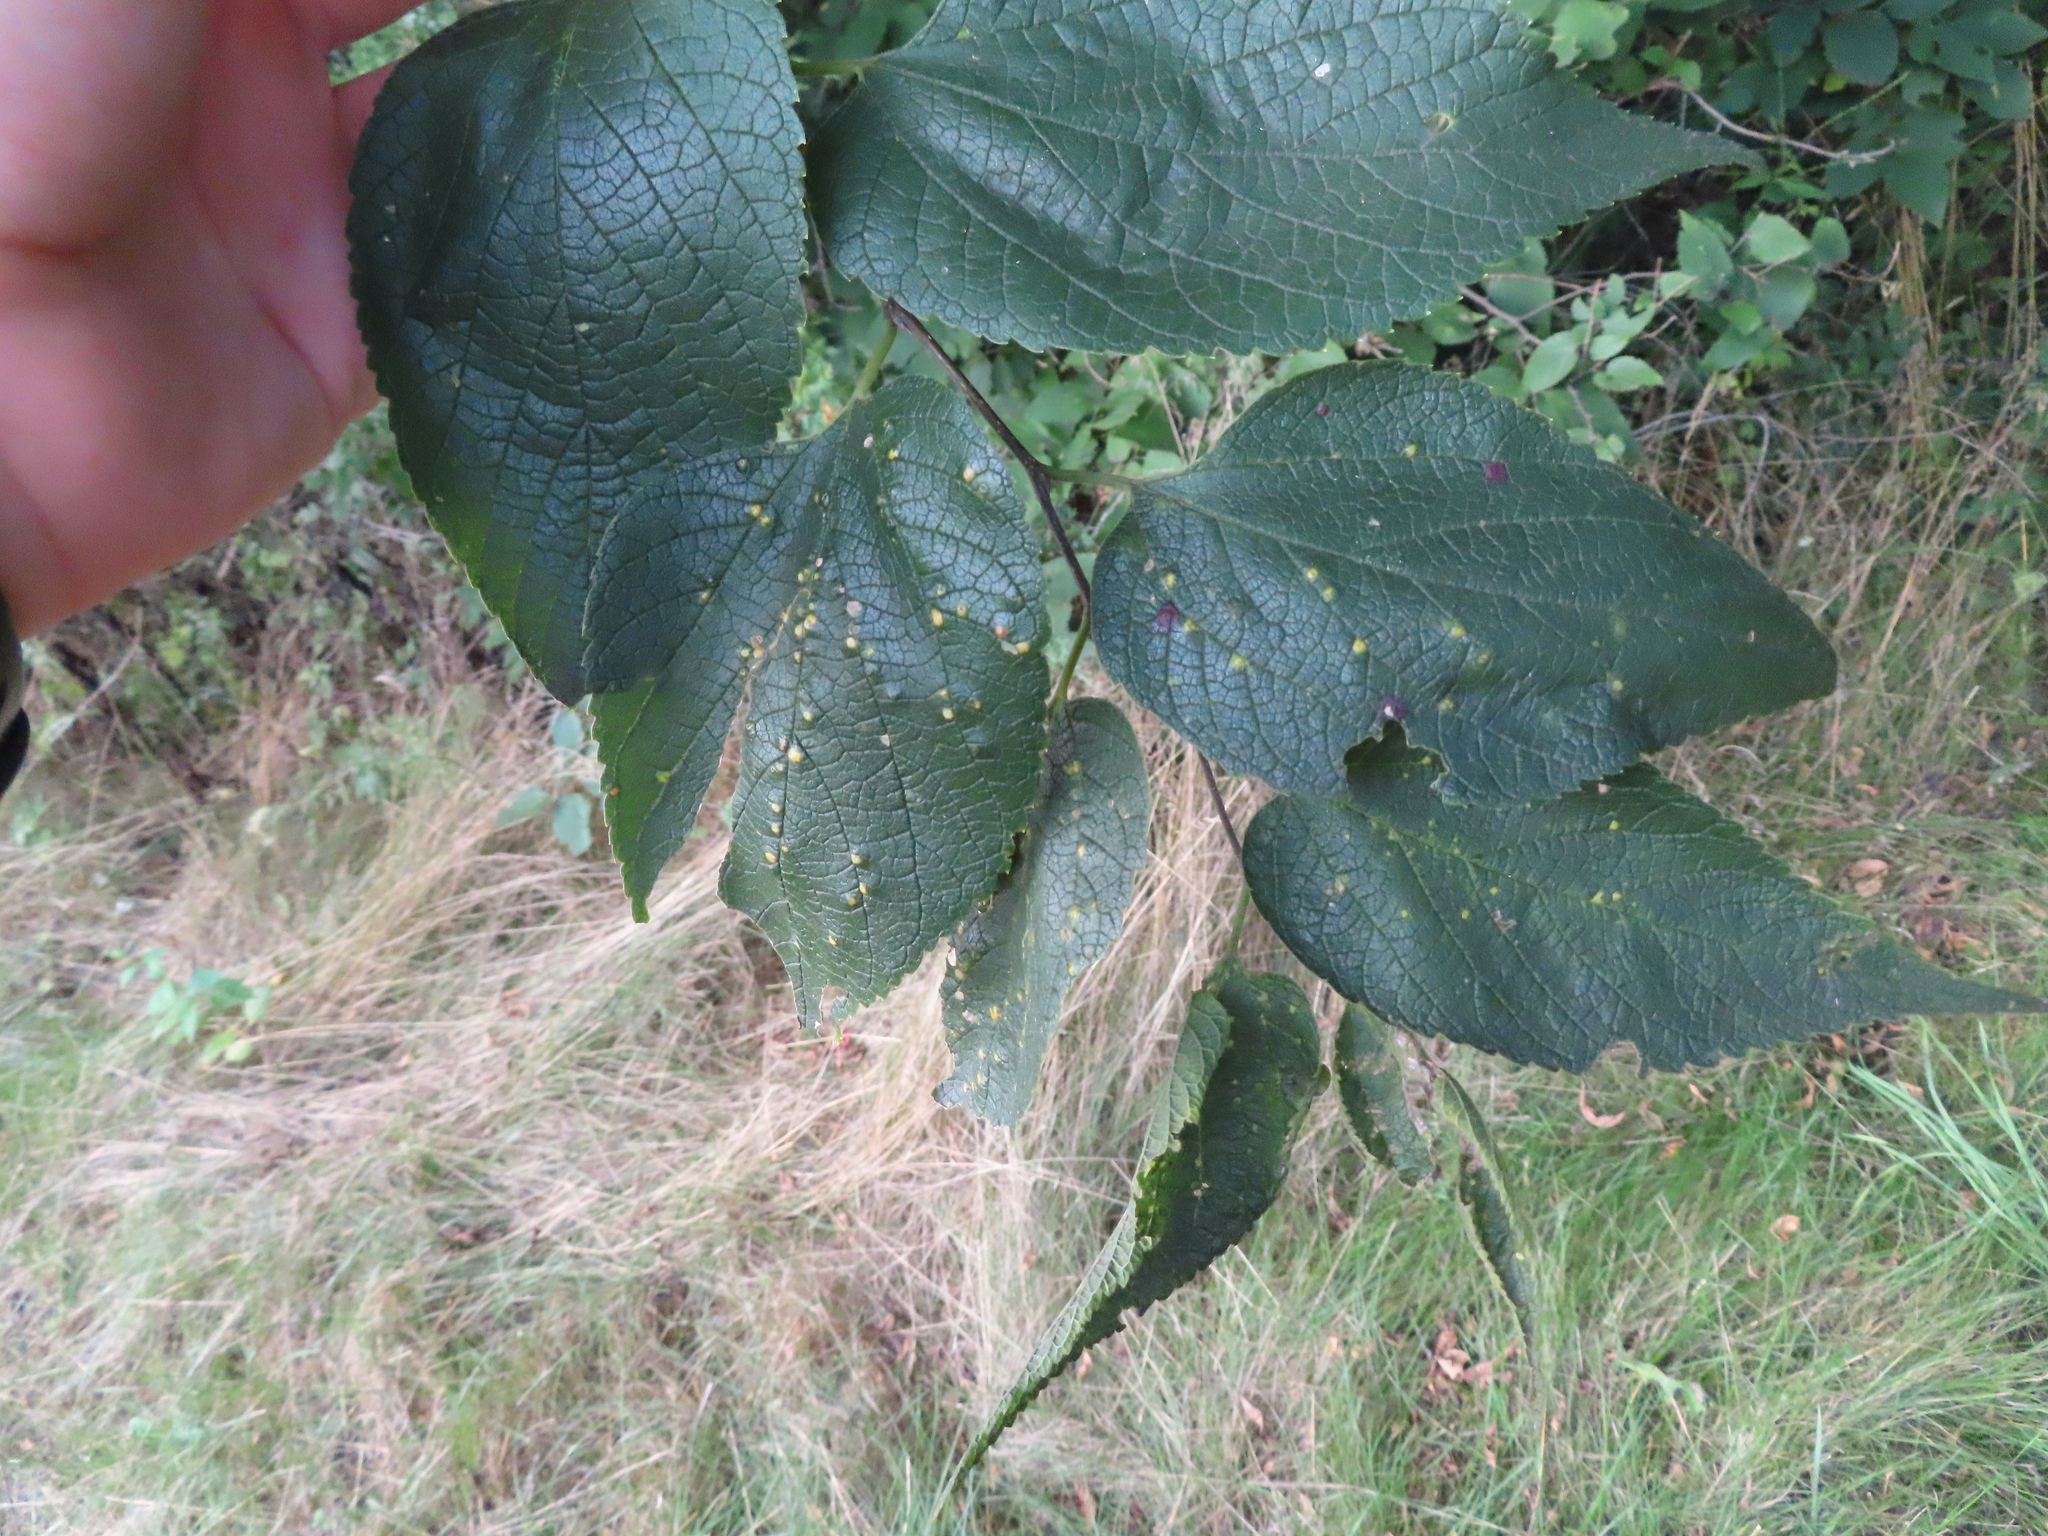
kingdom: Plantae
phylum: Tracheophyta
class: Magnoliopsida
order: Rosales
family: Cannabaceae
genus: Celtis
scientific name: Celtis occidentalis
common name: Common hackberry
